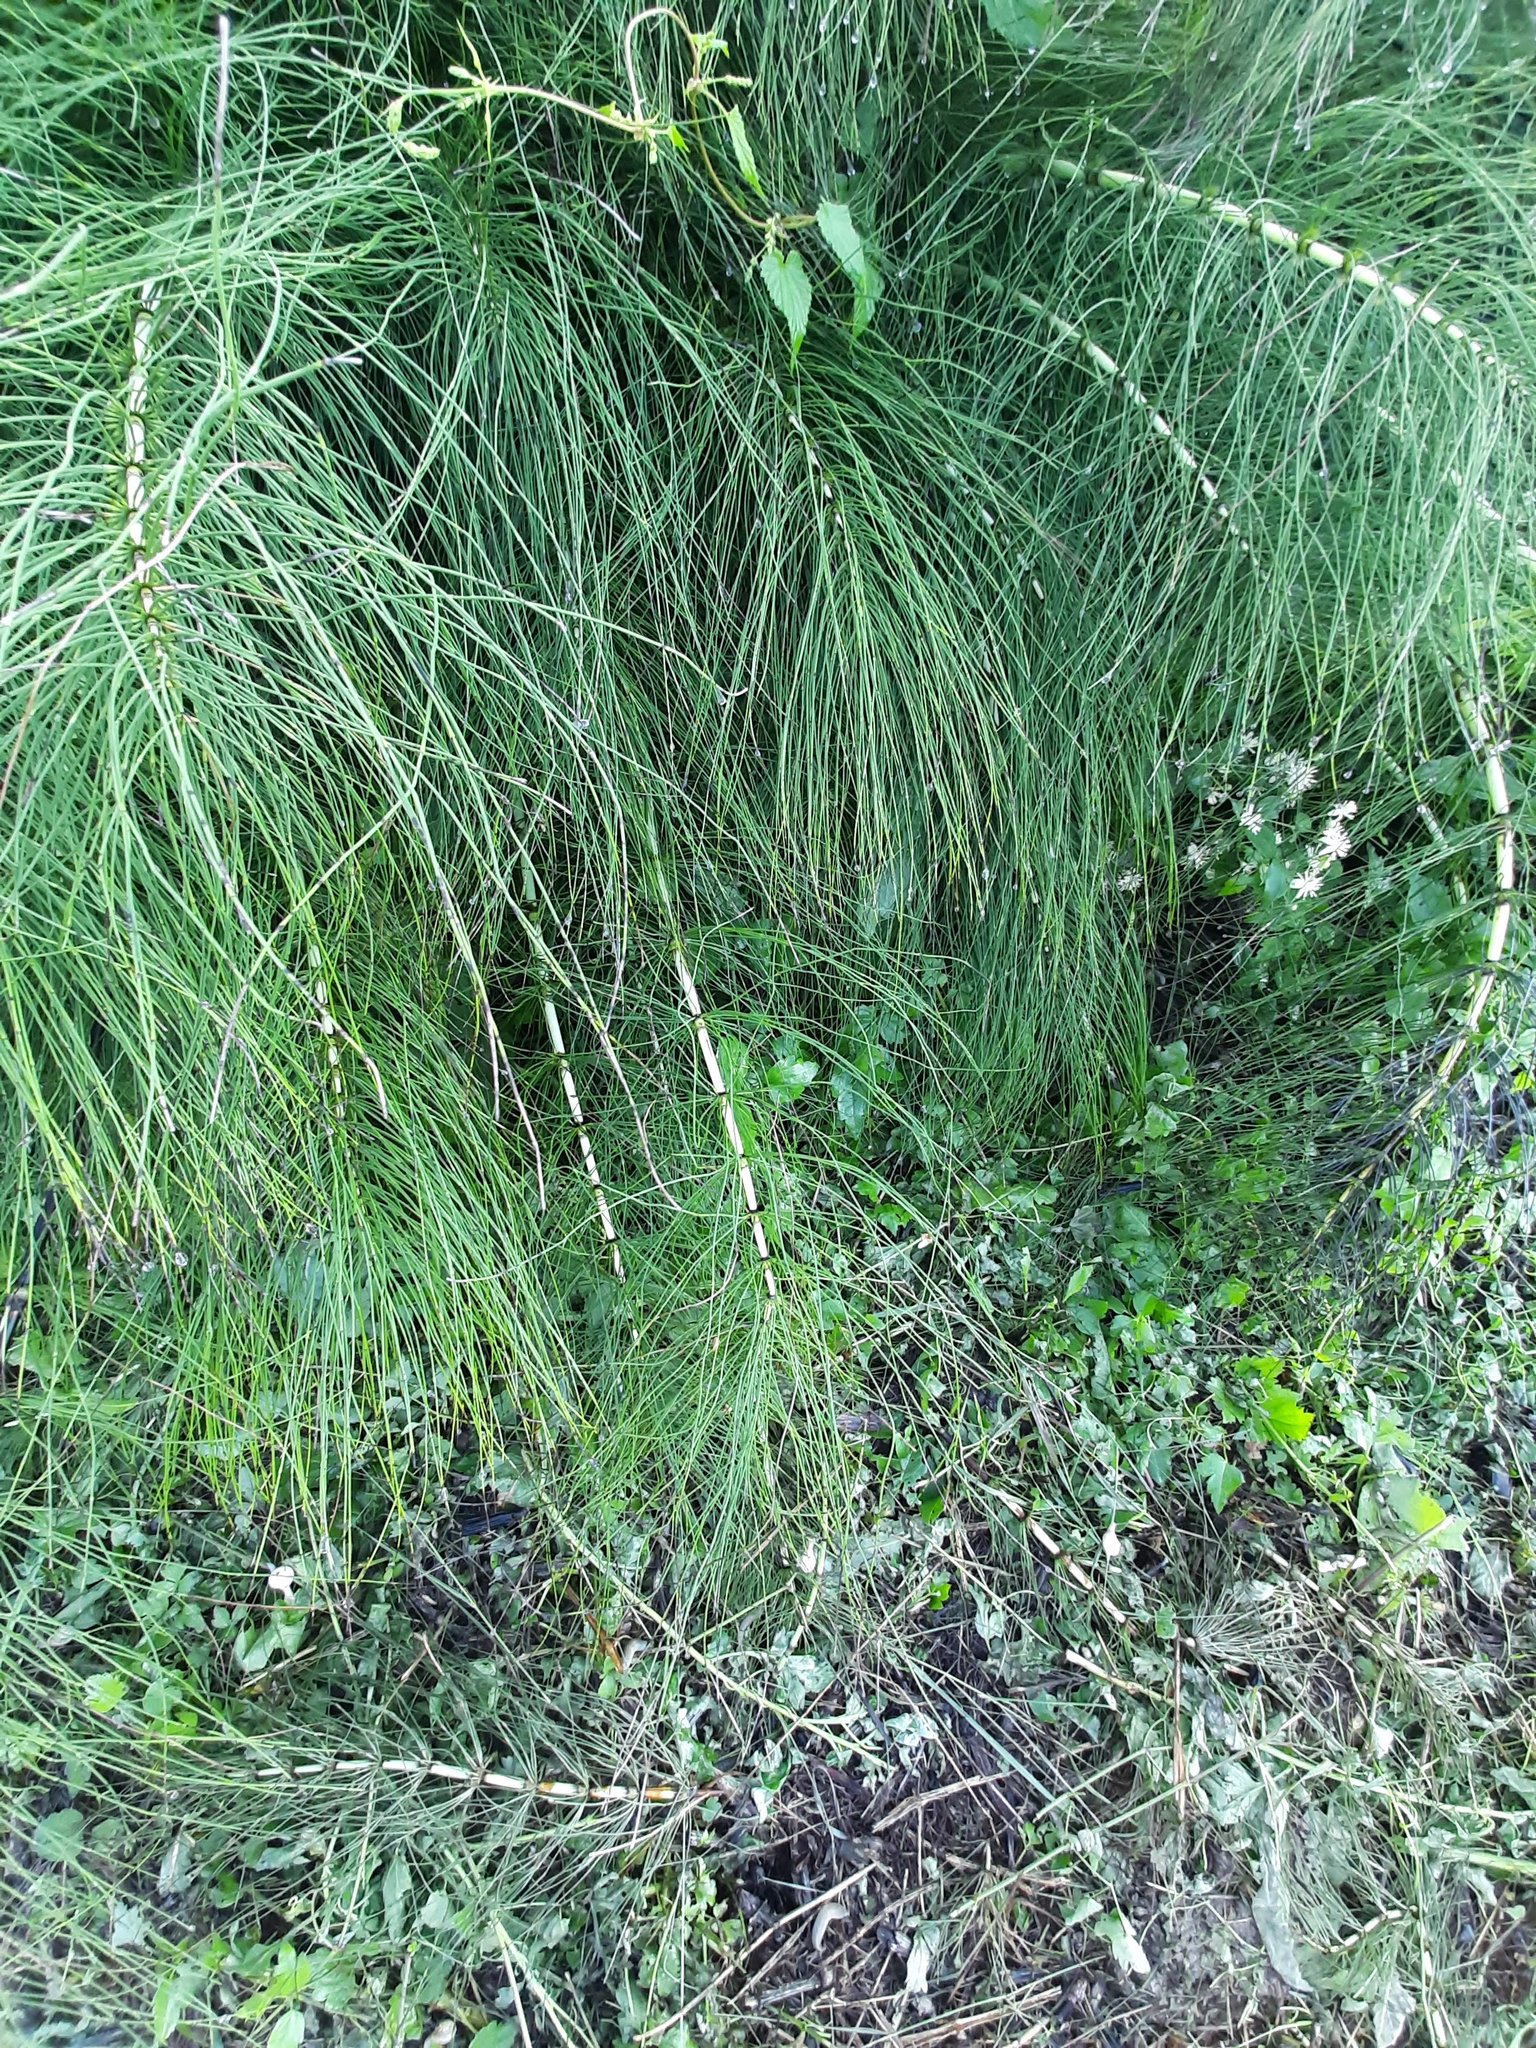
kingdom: Plantae
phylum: Tracheophyta
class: Polypodiopsida
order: Equisetales
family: Equisetaceae
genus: Equisetum
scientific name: Equisetum telmateia
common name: Great horsetail
